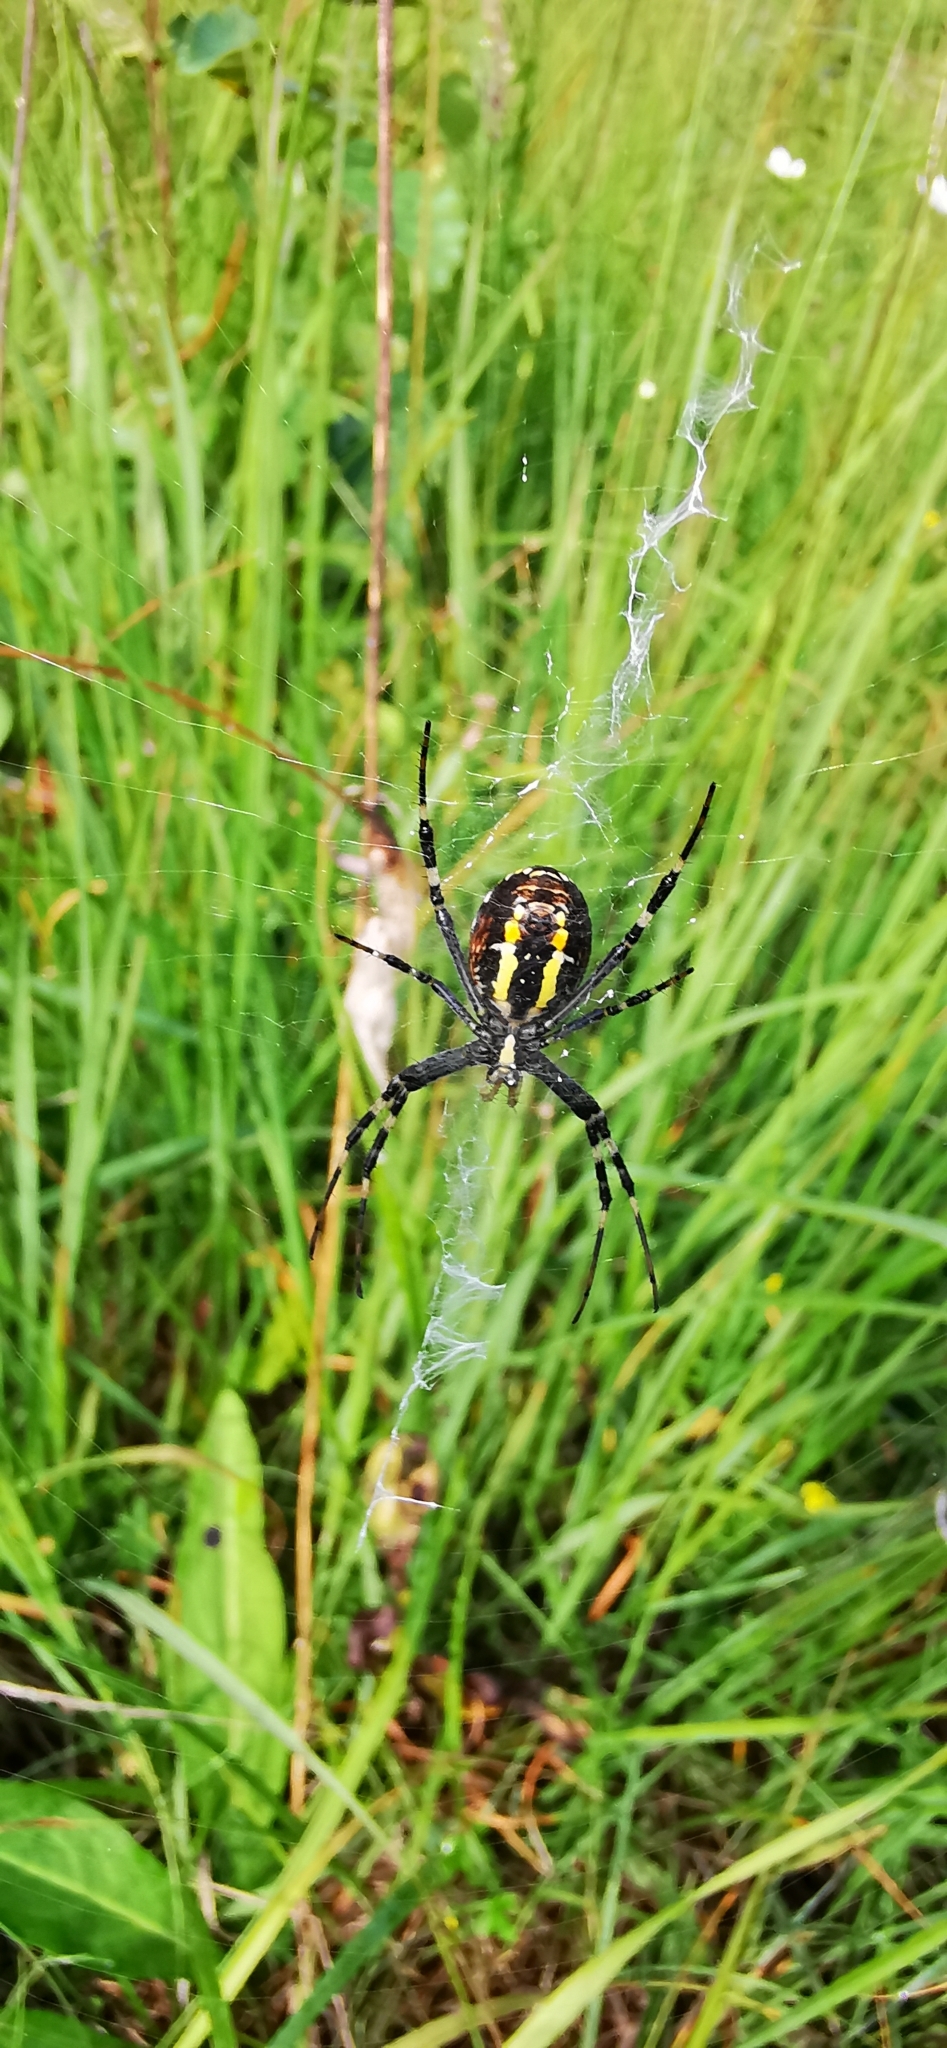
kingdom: Animalia
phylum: Arthropoda
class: Arachnida
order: Araneae
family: Araneidae
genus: Argiope
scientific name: Argiope bruennichi
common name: Wasp spider
